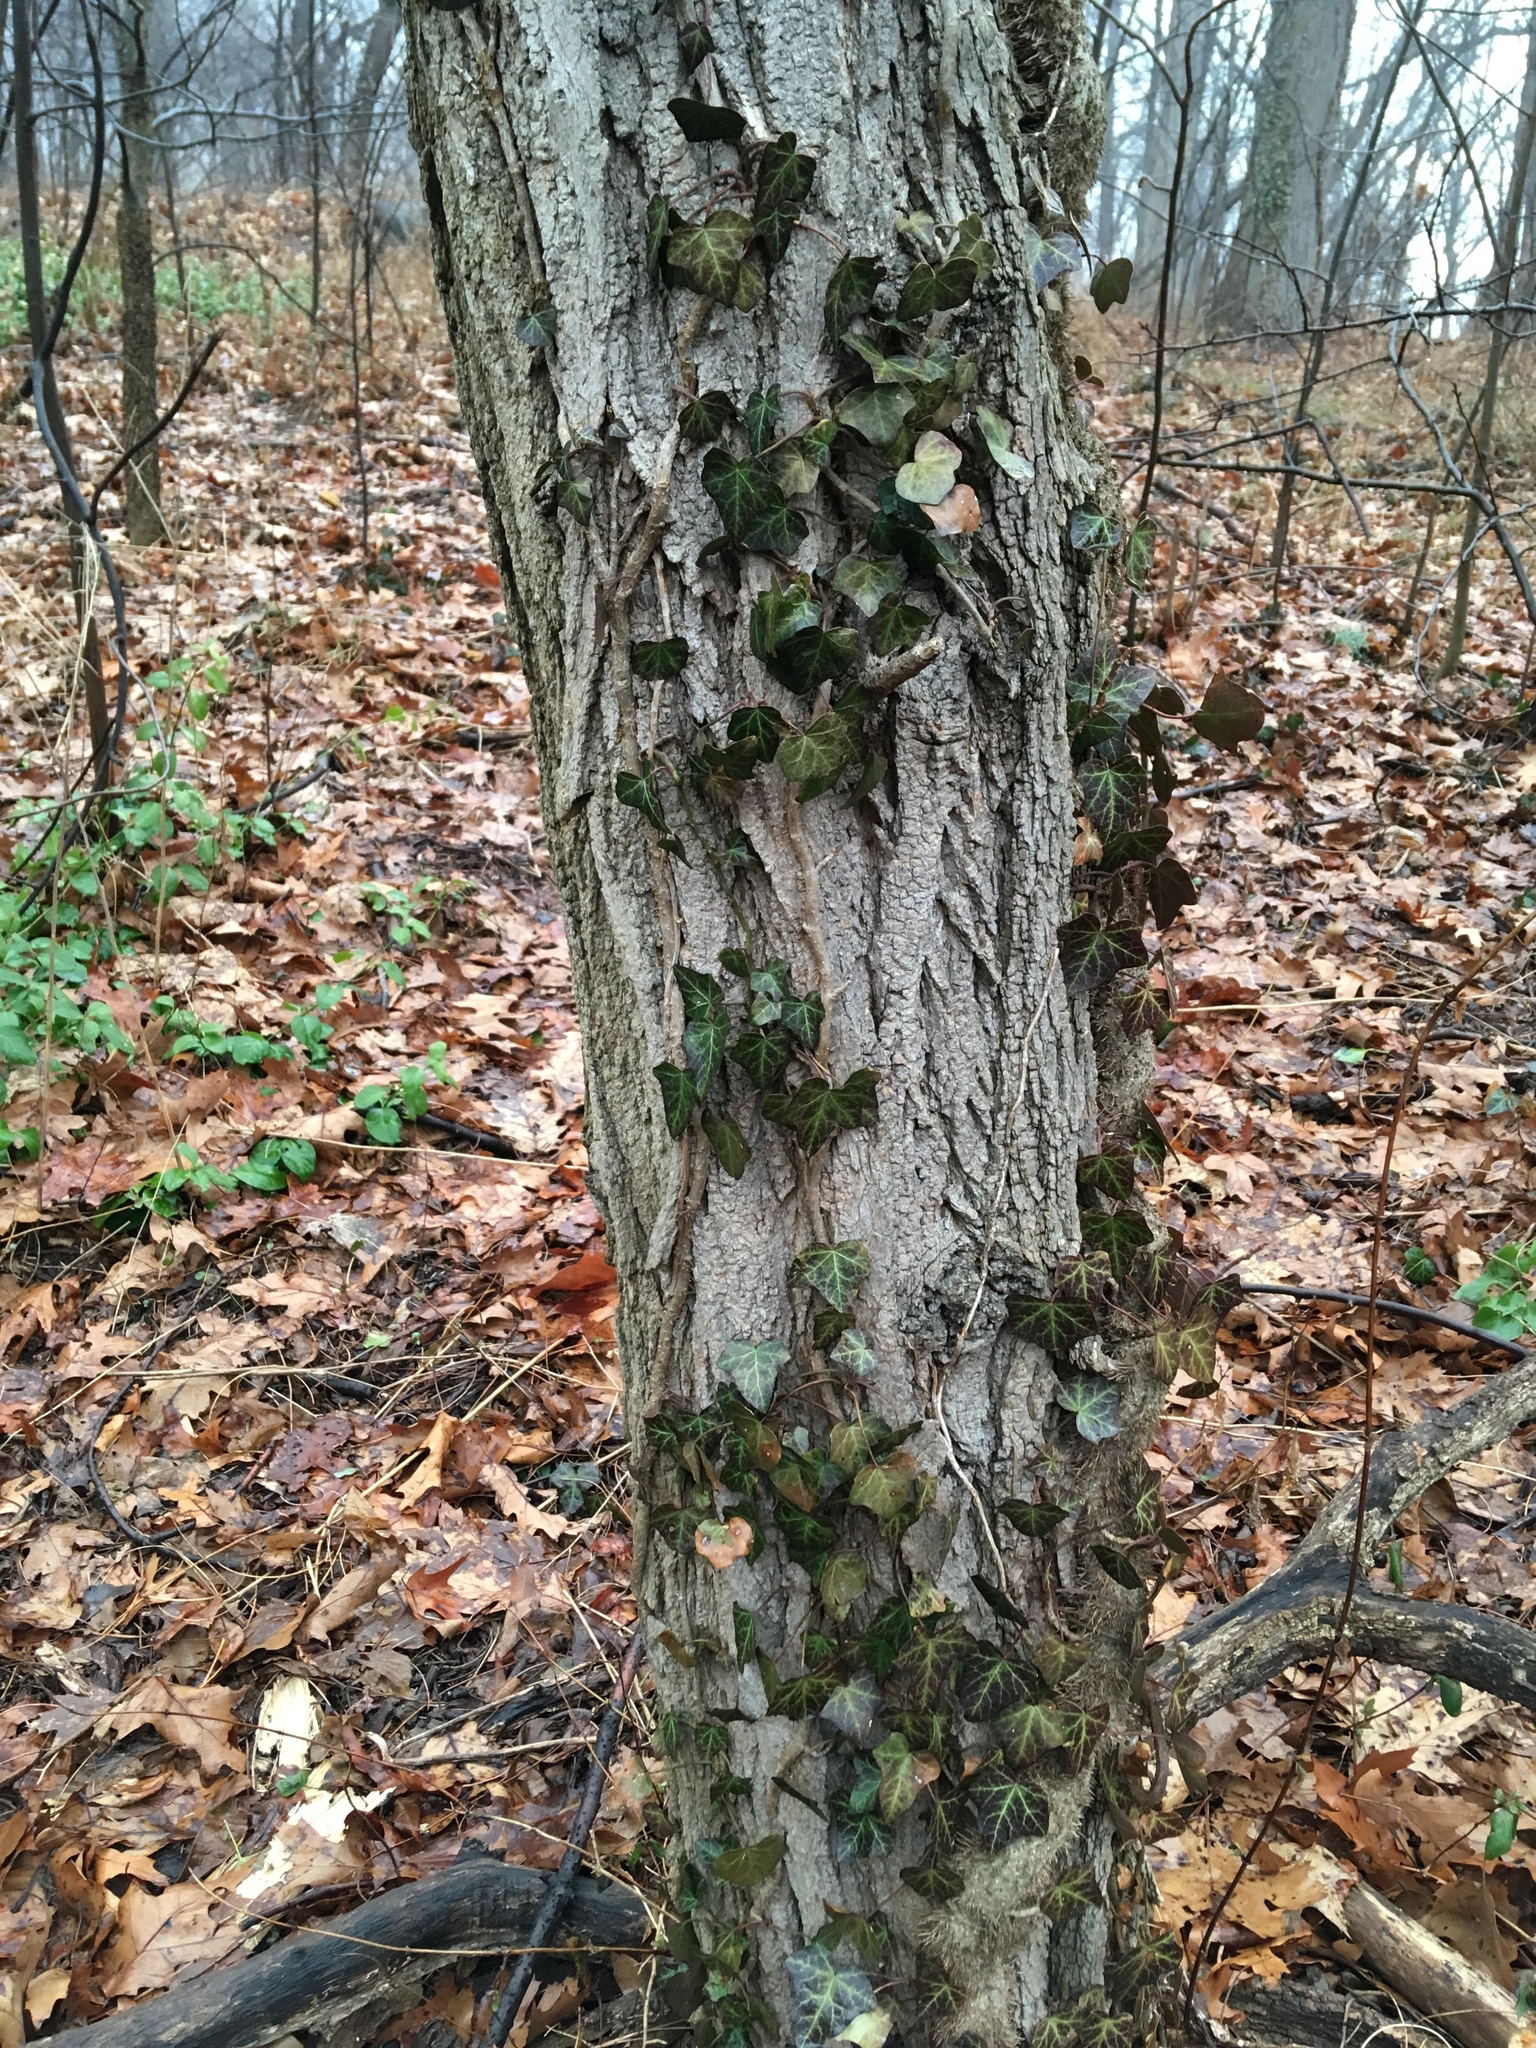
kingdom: Plantae
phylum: Tracheophyta
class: Magnoliopsida
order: Apiales
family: Araliaceae
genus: Hedera
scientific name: Hedera helix
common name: Ivy
